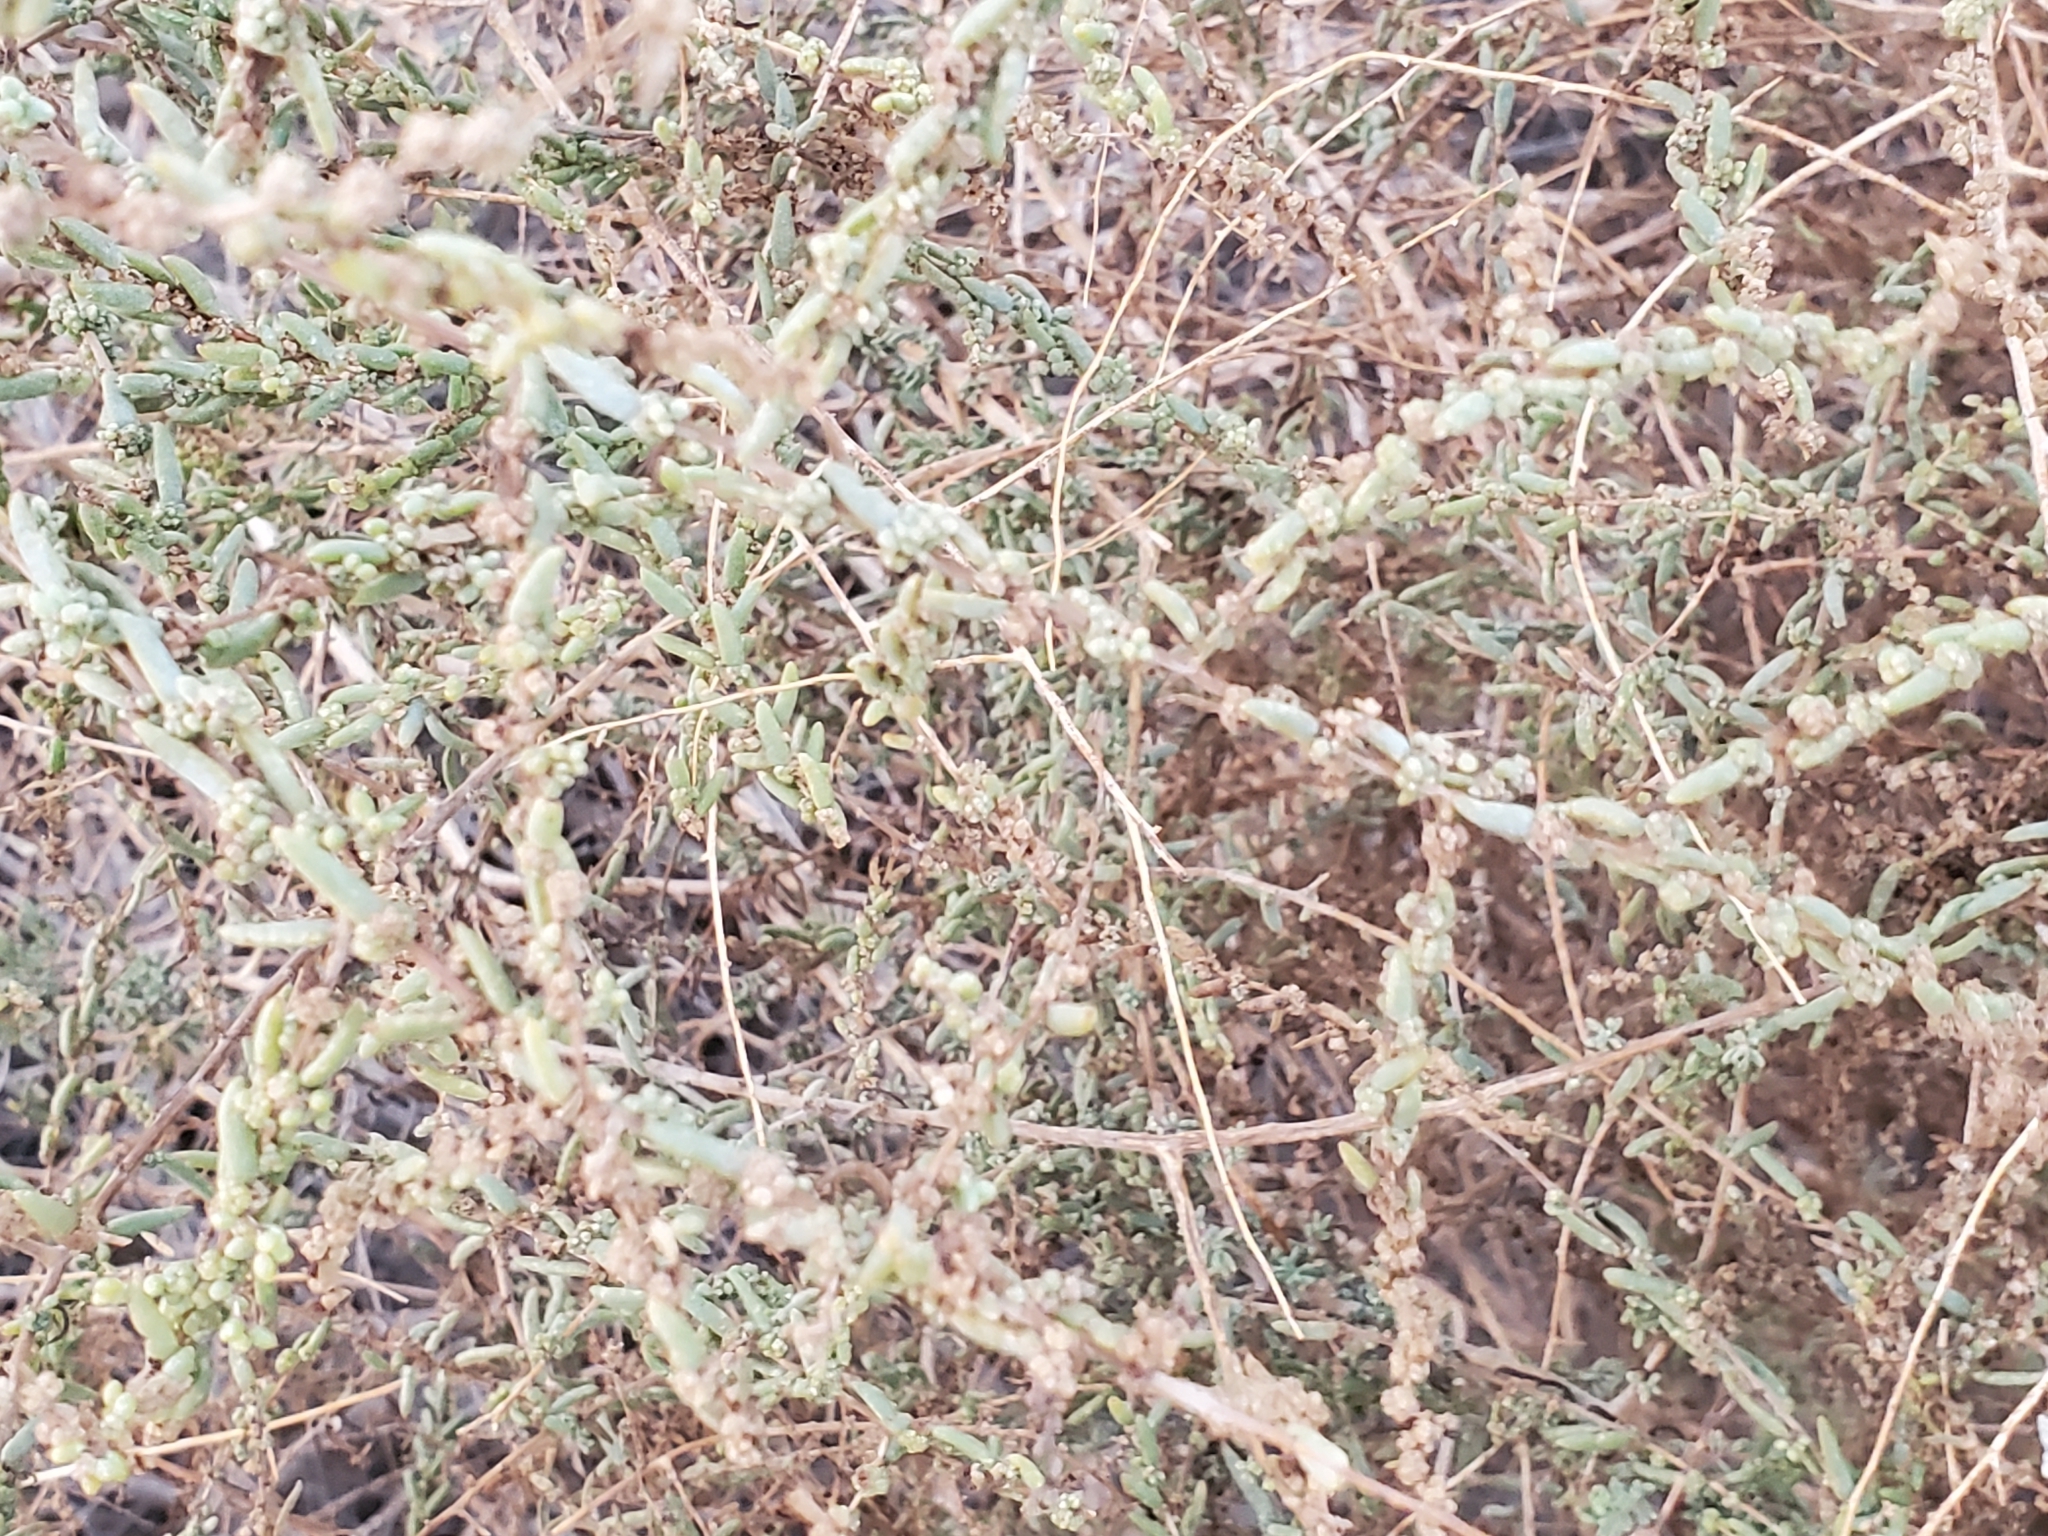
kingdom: Plantae
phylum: Tracheophyta
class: Magnoliopsida
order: Caryophyllales
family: Amaranthaceae
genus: Suaeda
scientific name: Suaeda nigra
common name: Bush seepweed
